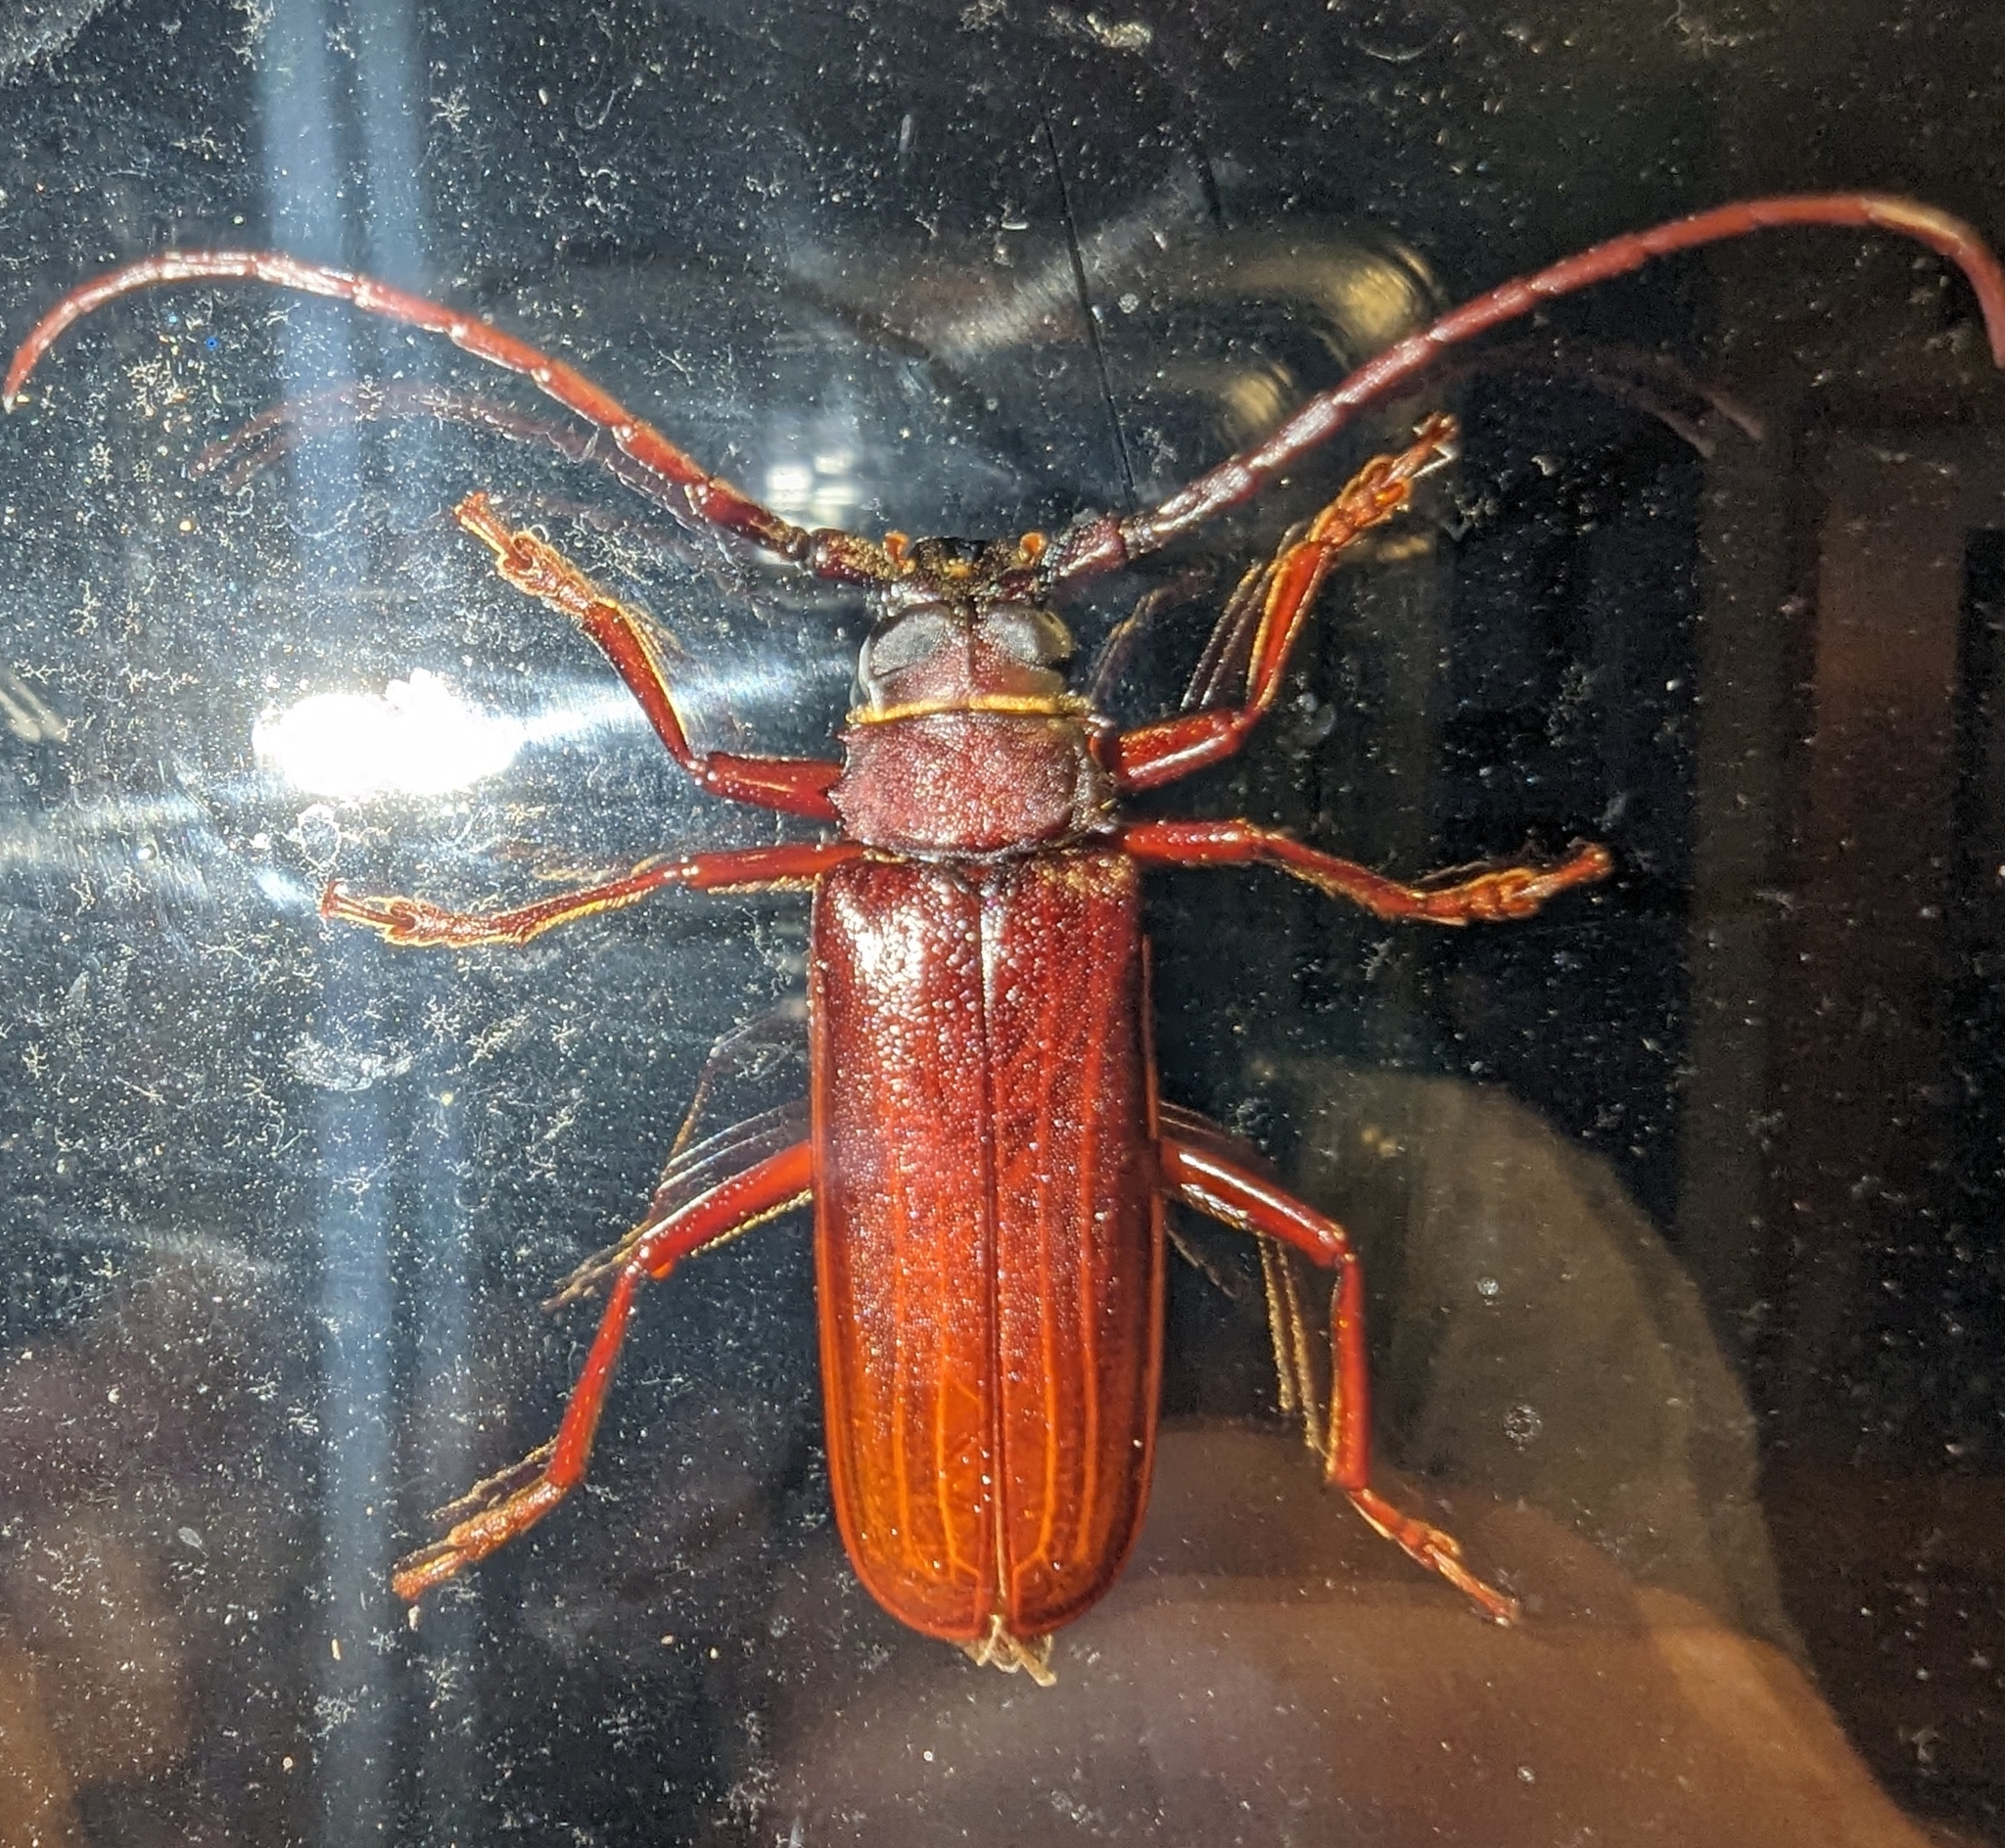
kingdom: Animalia
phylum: Arthropoda
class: Insecta
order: Coleoptera
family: Cerambycidae
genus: Orthosoma
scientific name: Orthosoma brunneum
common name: Brown prionid beetle
